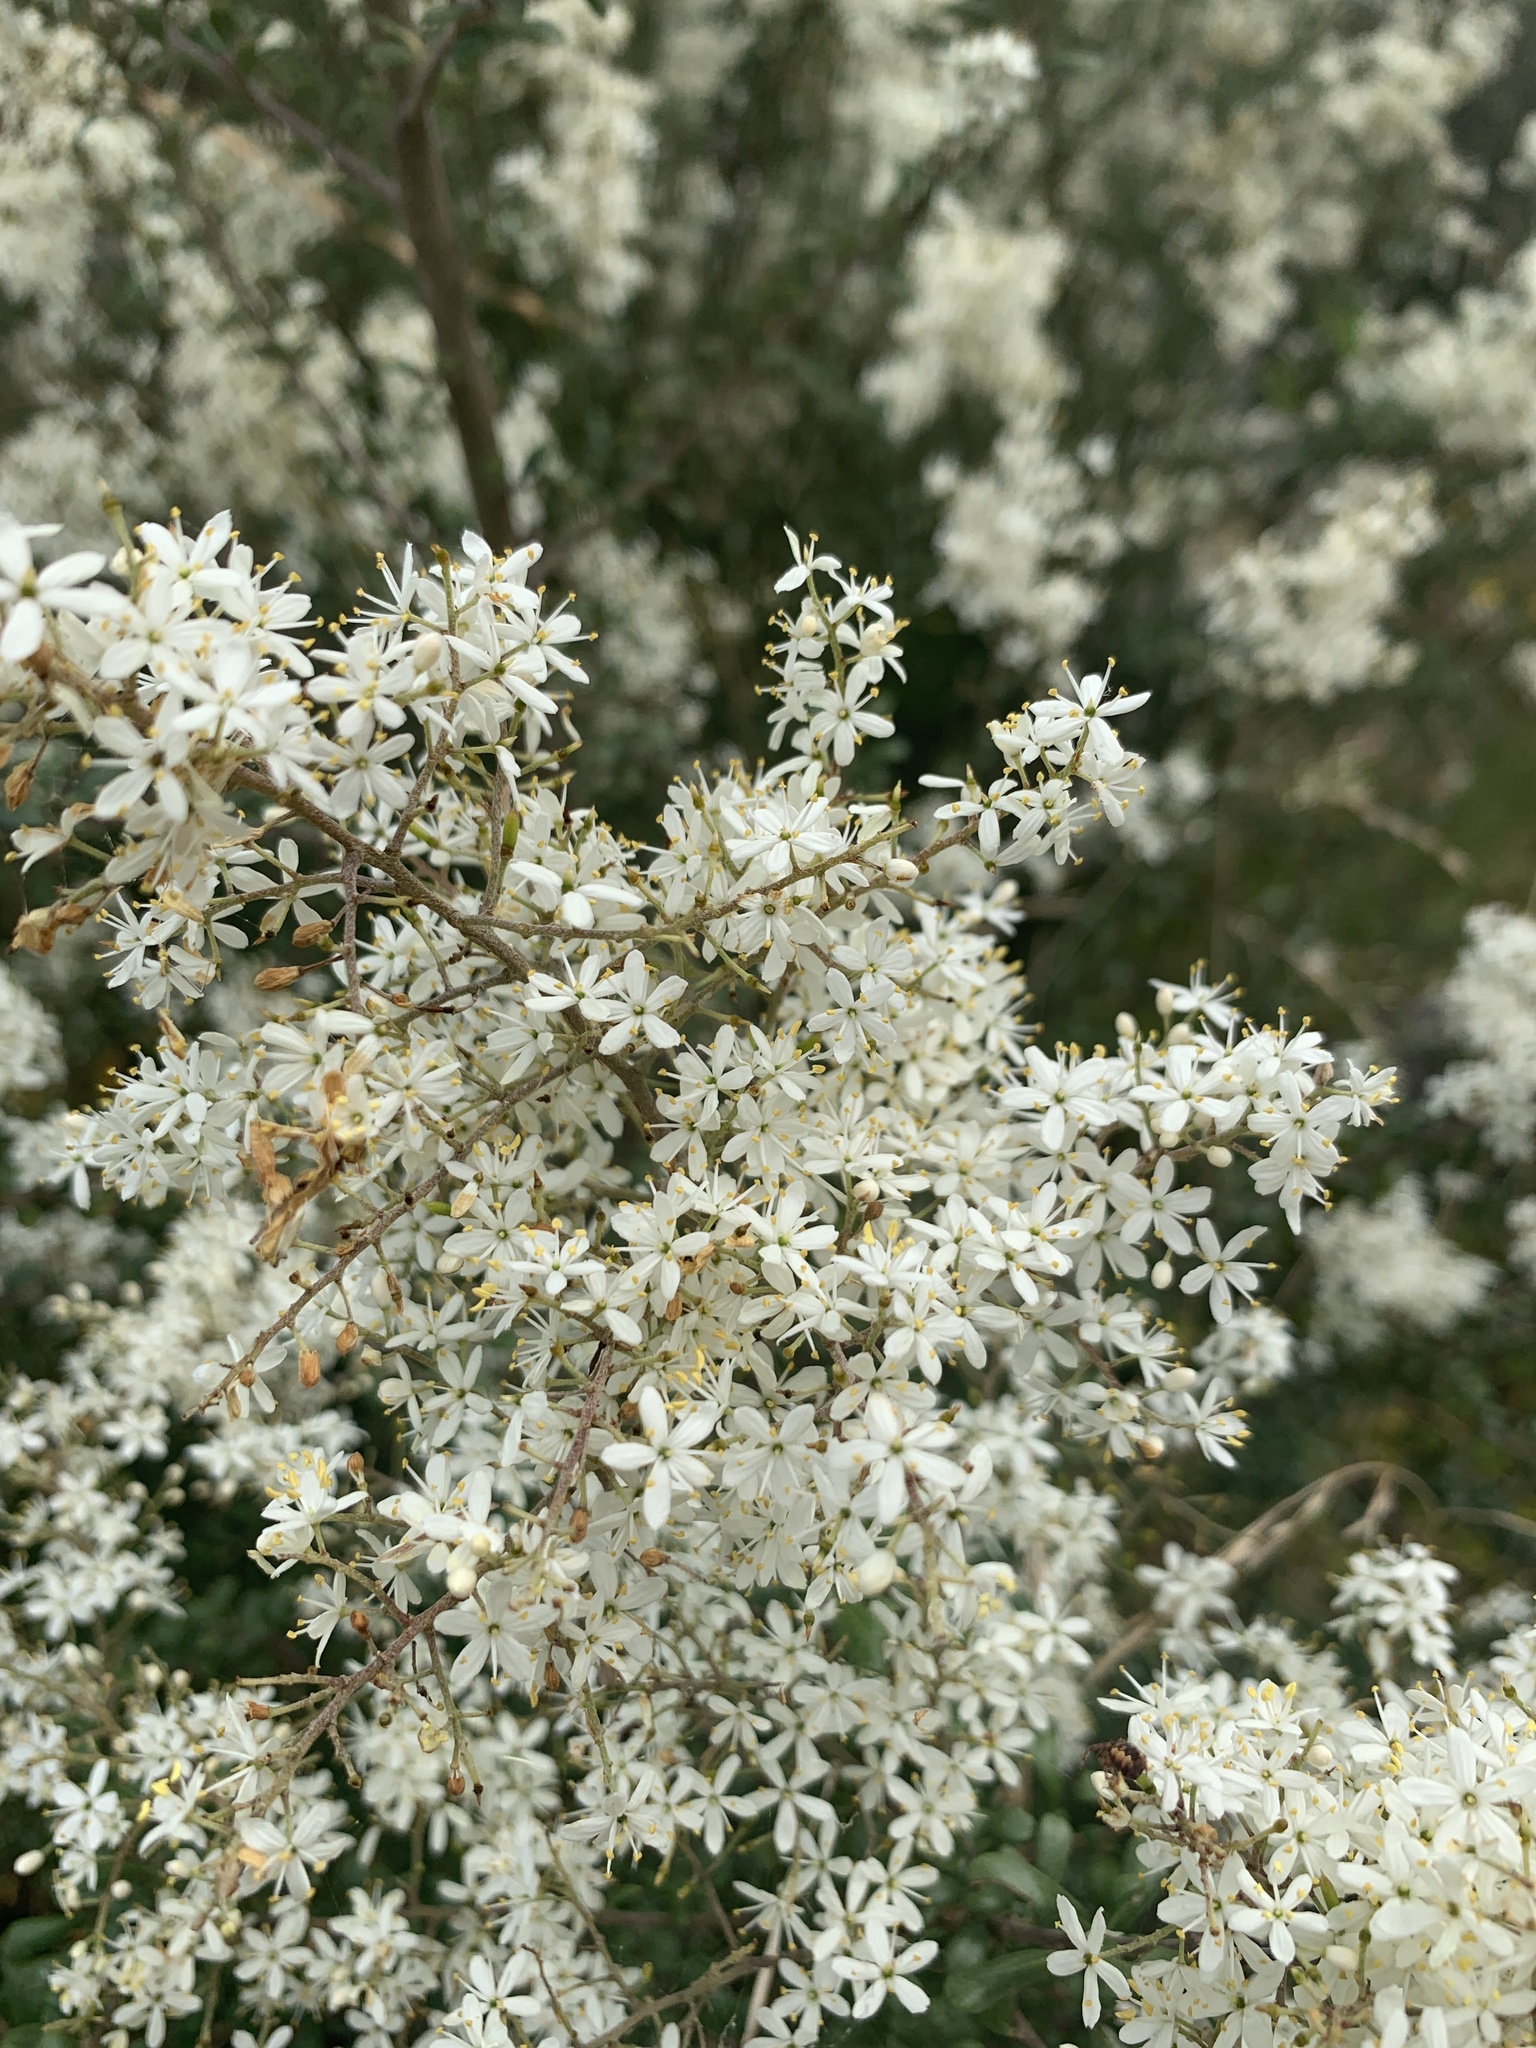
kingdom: Plantae
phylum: Tracheophyta
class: Magnoliopsida
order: Apiales
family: Pittosporaceae
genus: Bursaria
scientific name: Bursaria spinosa
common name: Australian blackthorn
